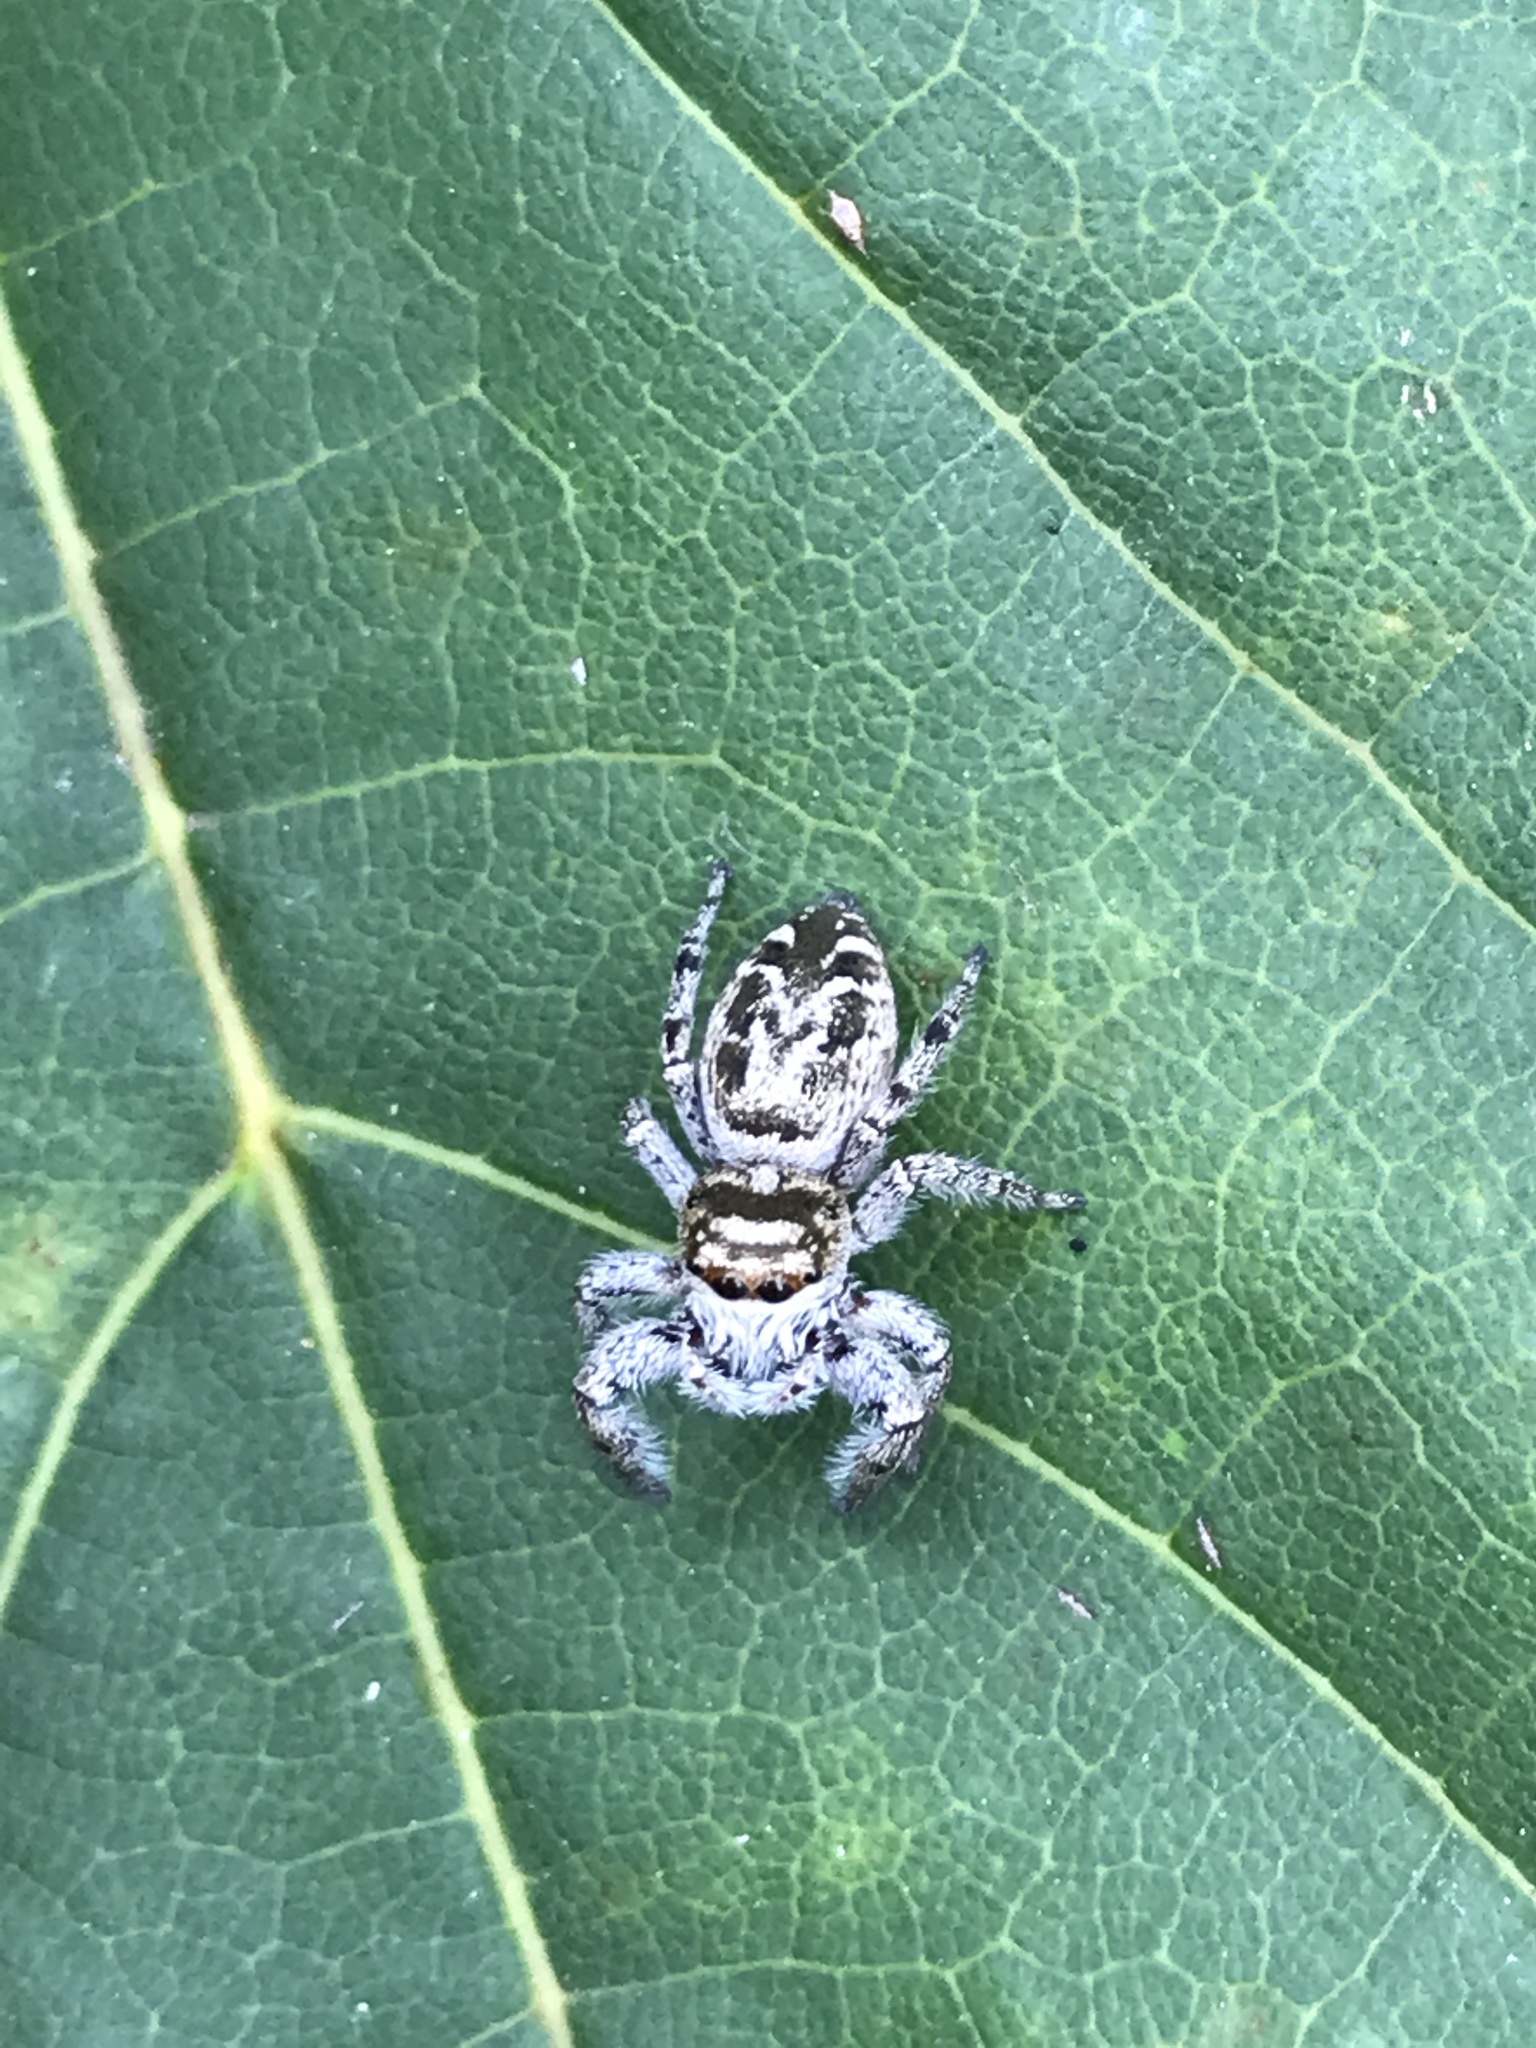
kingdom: Animalia
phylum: Arthropoda
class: Arachnida
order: Araneae
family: Salticidae
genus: Eris
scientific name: Eris militaris
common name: Bronze jumper
